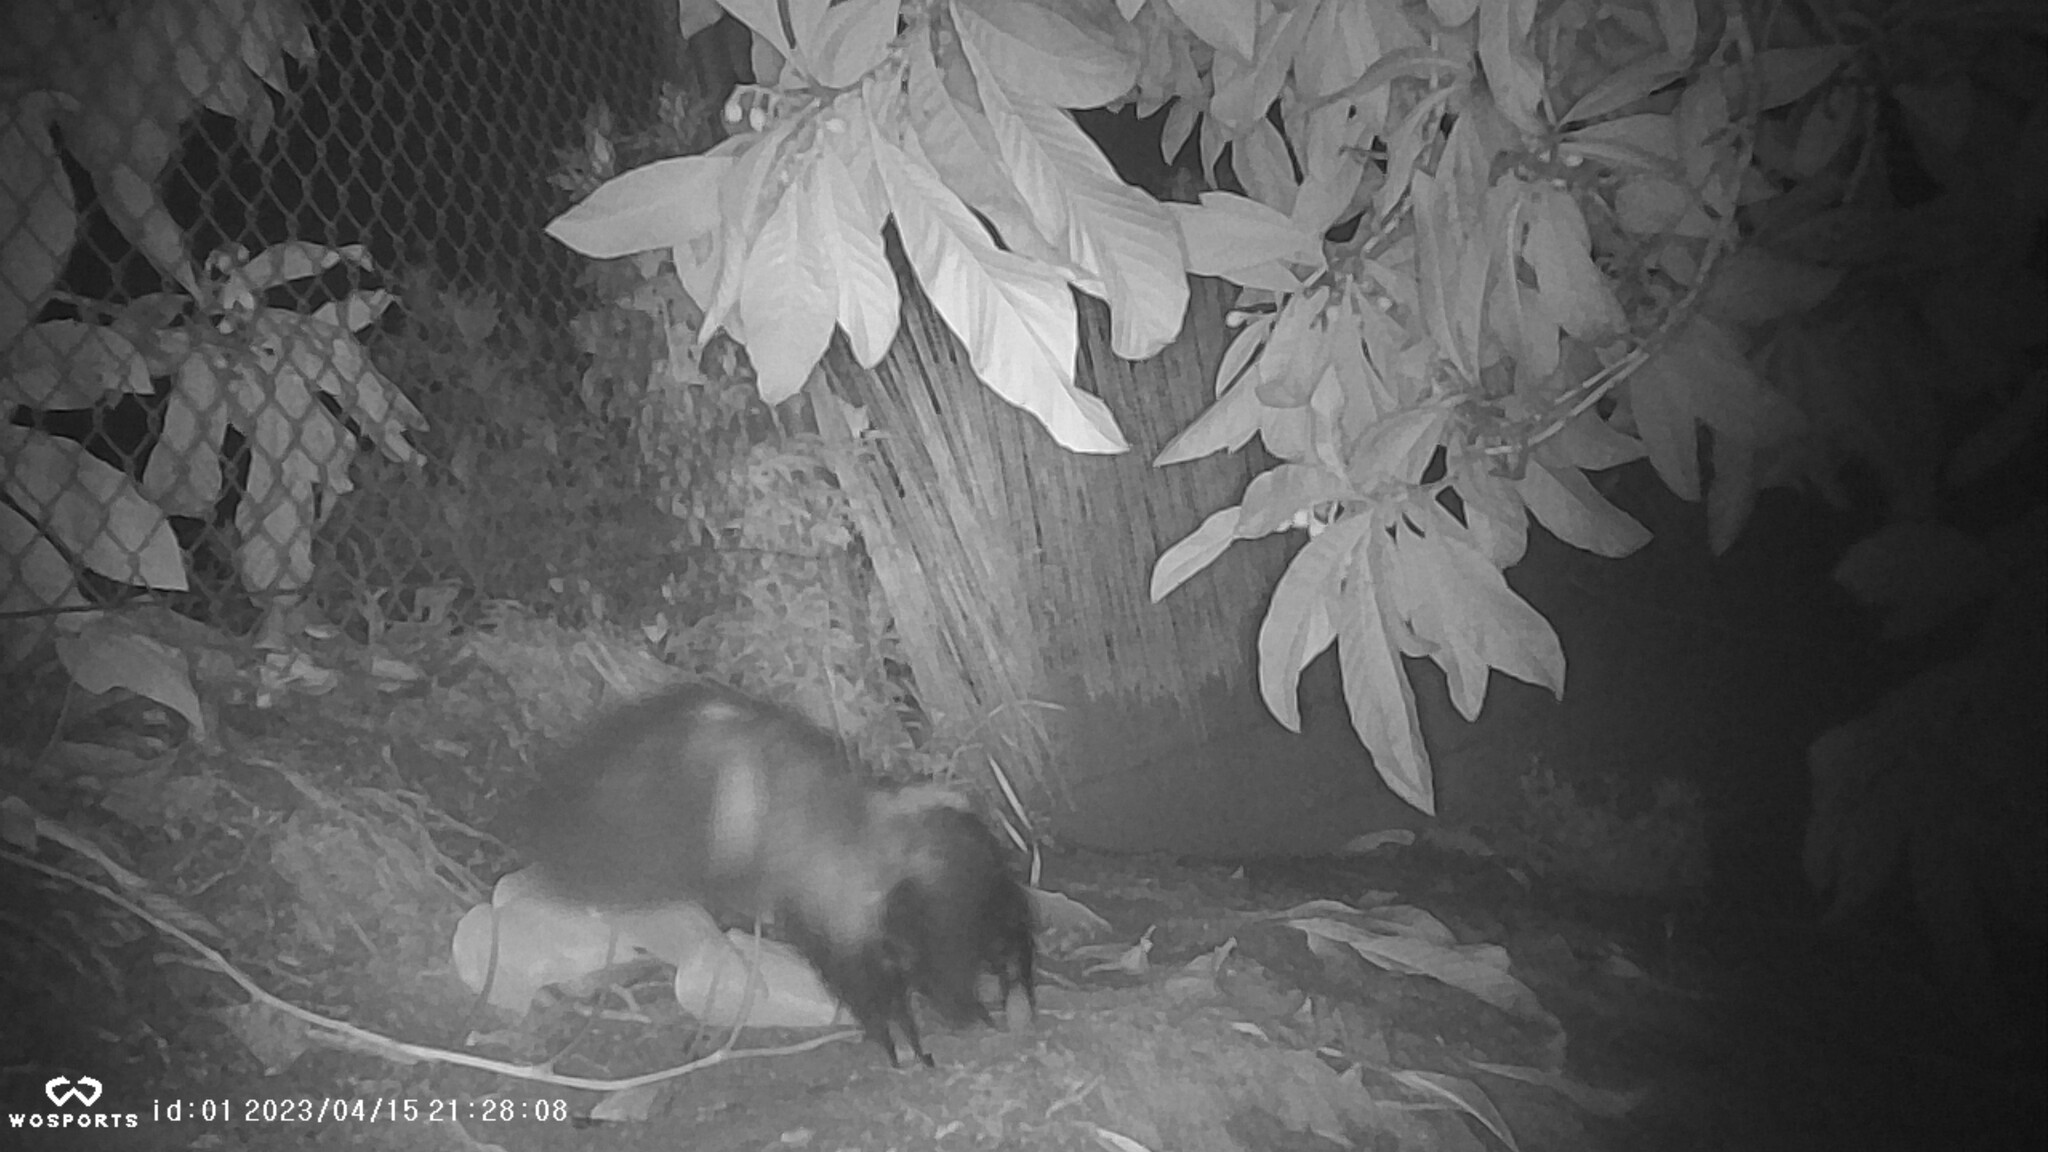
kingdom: Animalia
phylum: Chordata
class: Mammalia
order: Carnivora
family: Mephitidae
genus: Mephitis
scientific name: Mephitis mephitis
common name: Striped skunk
